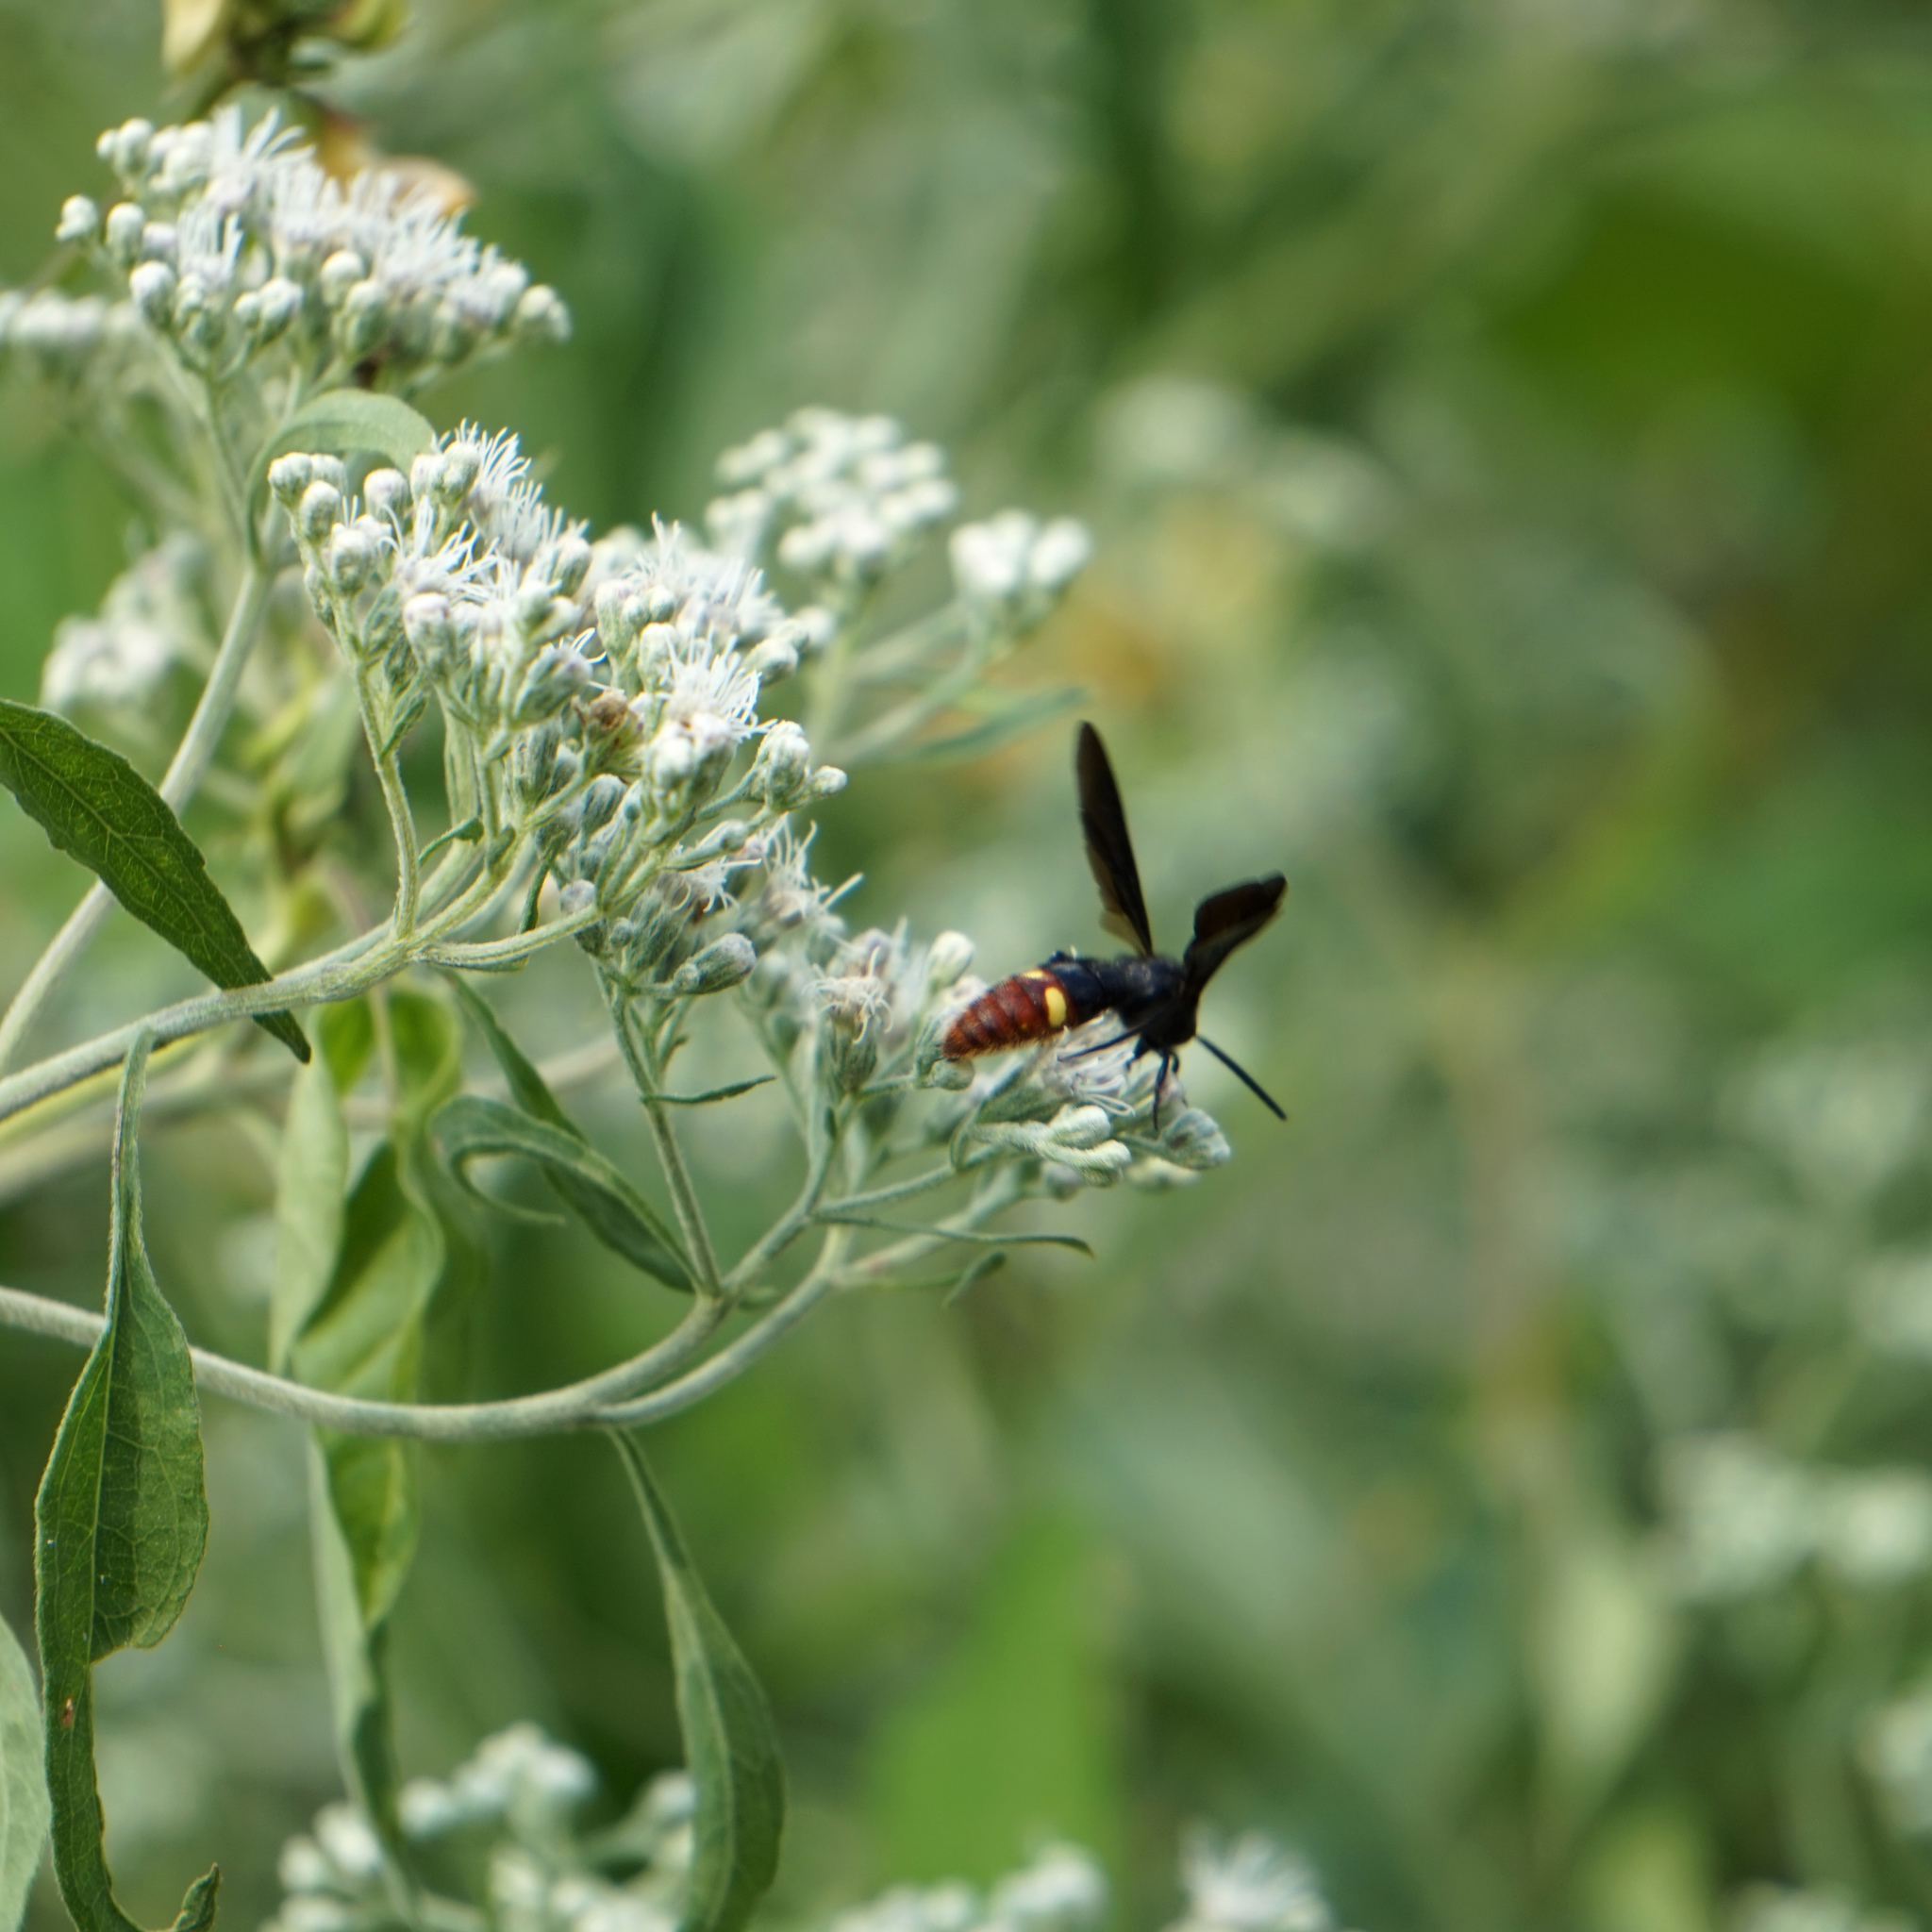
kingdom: Animalia
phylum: Arthropoda
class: Insecta
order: Hymenoptera
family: Scoliidae
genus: Scolia
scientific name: Scolia dubia
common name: Blue-winged scoliid wasp
